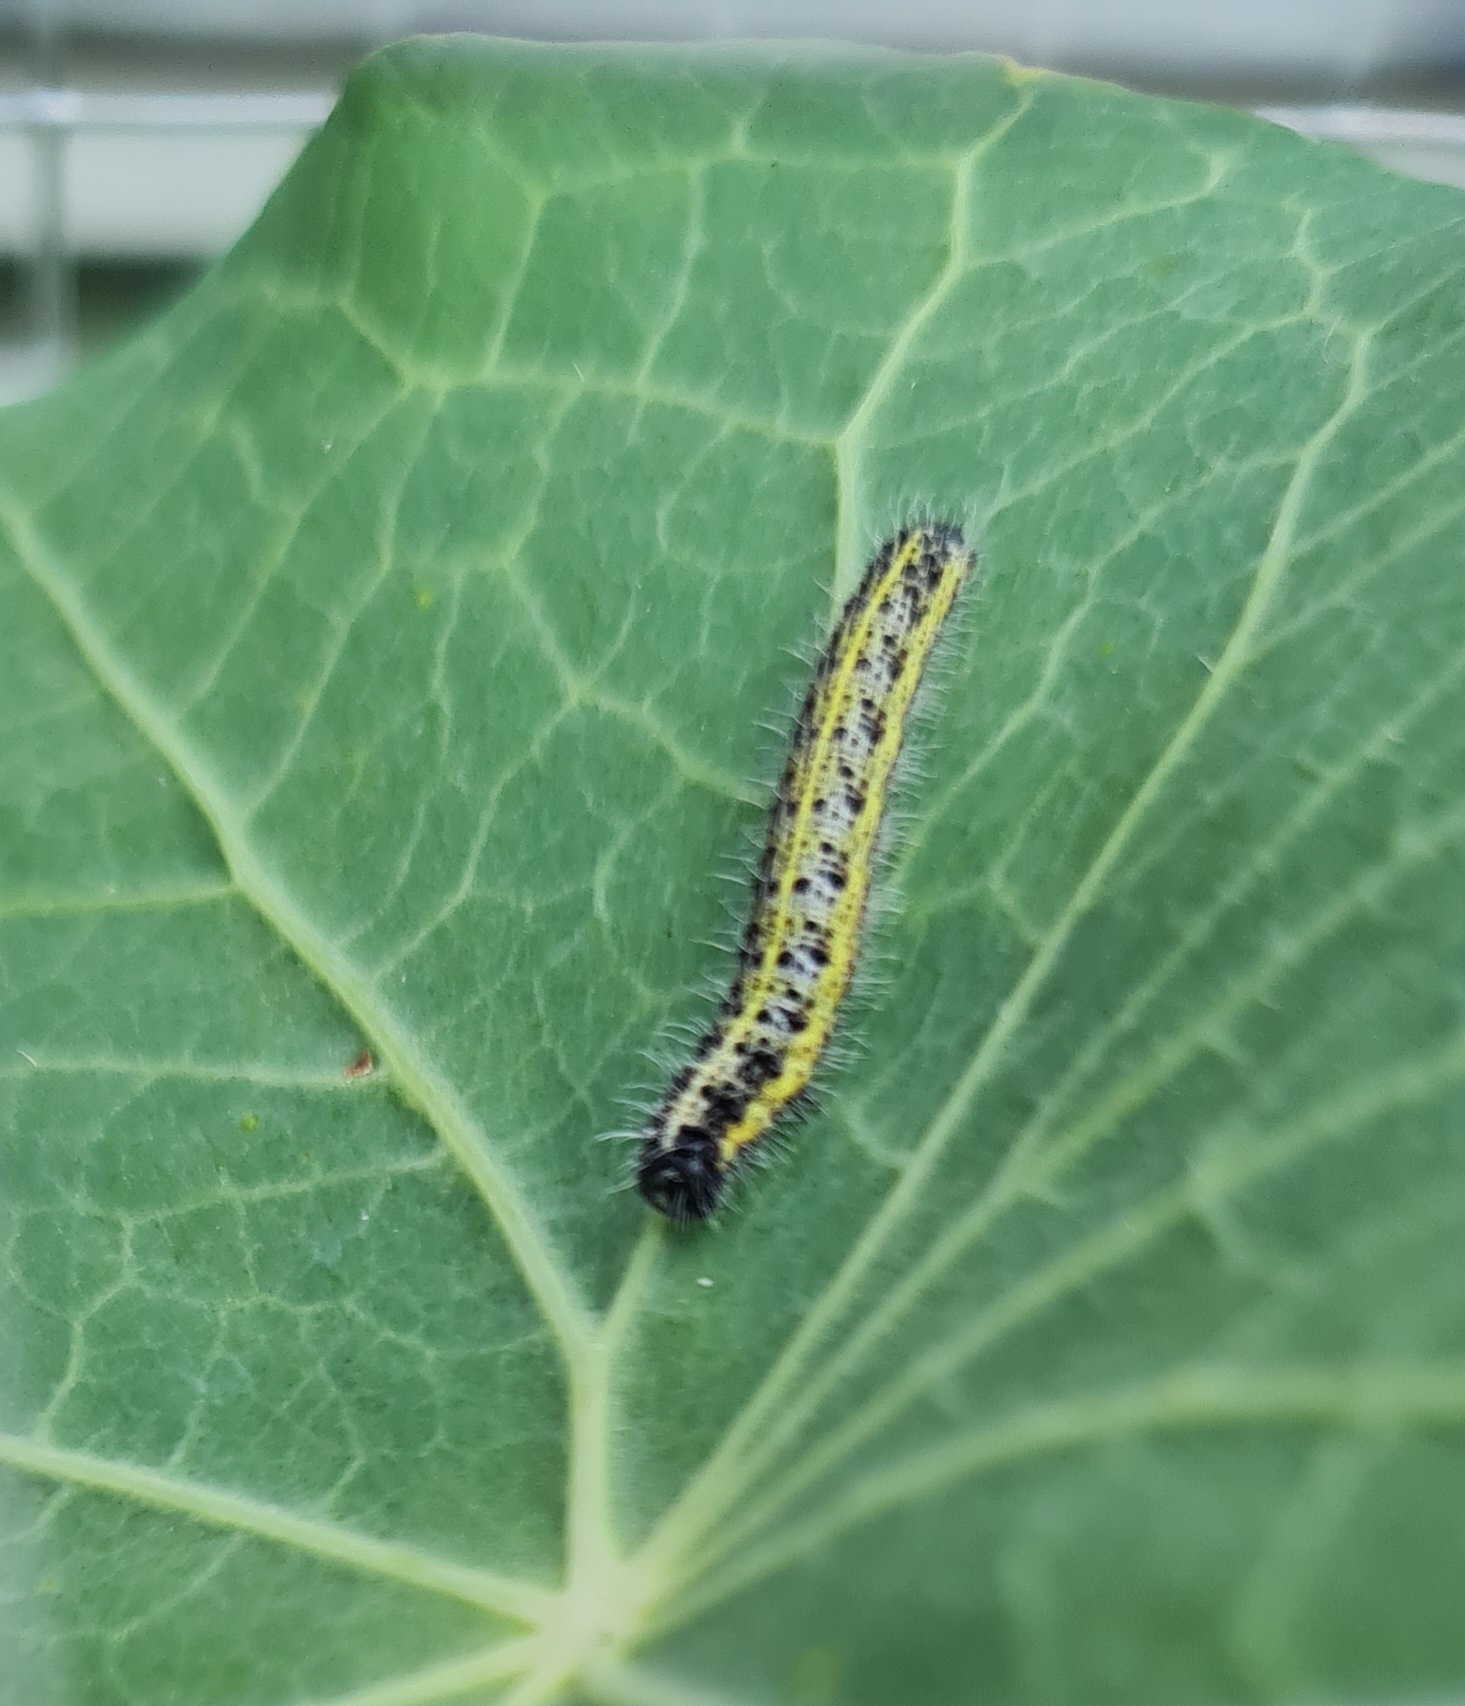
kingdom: Animalia
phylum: Arthropoda
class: Insecta
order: Lepidoptera
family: Pieridae
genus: Pieris
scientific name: Pieris brassicae
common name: Large white
